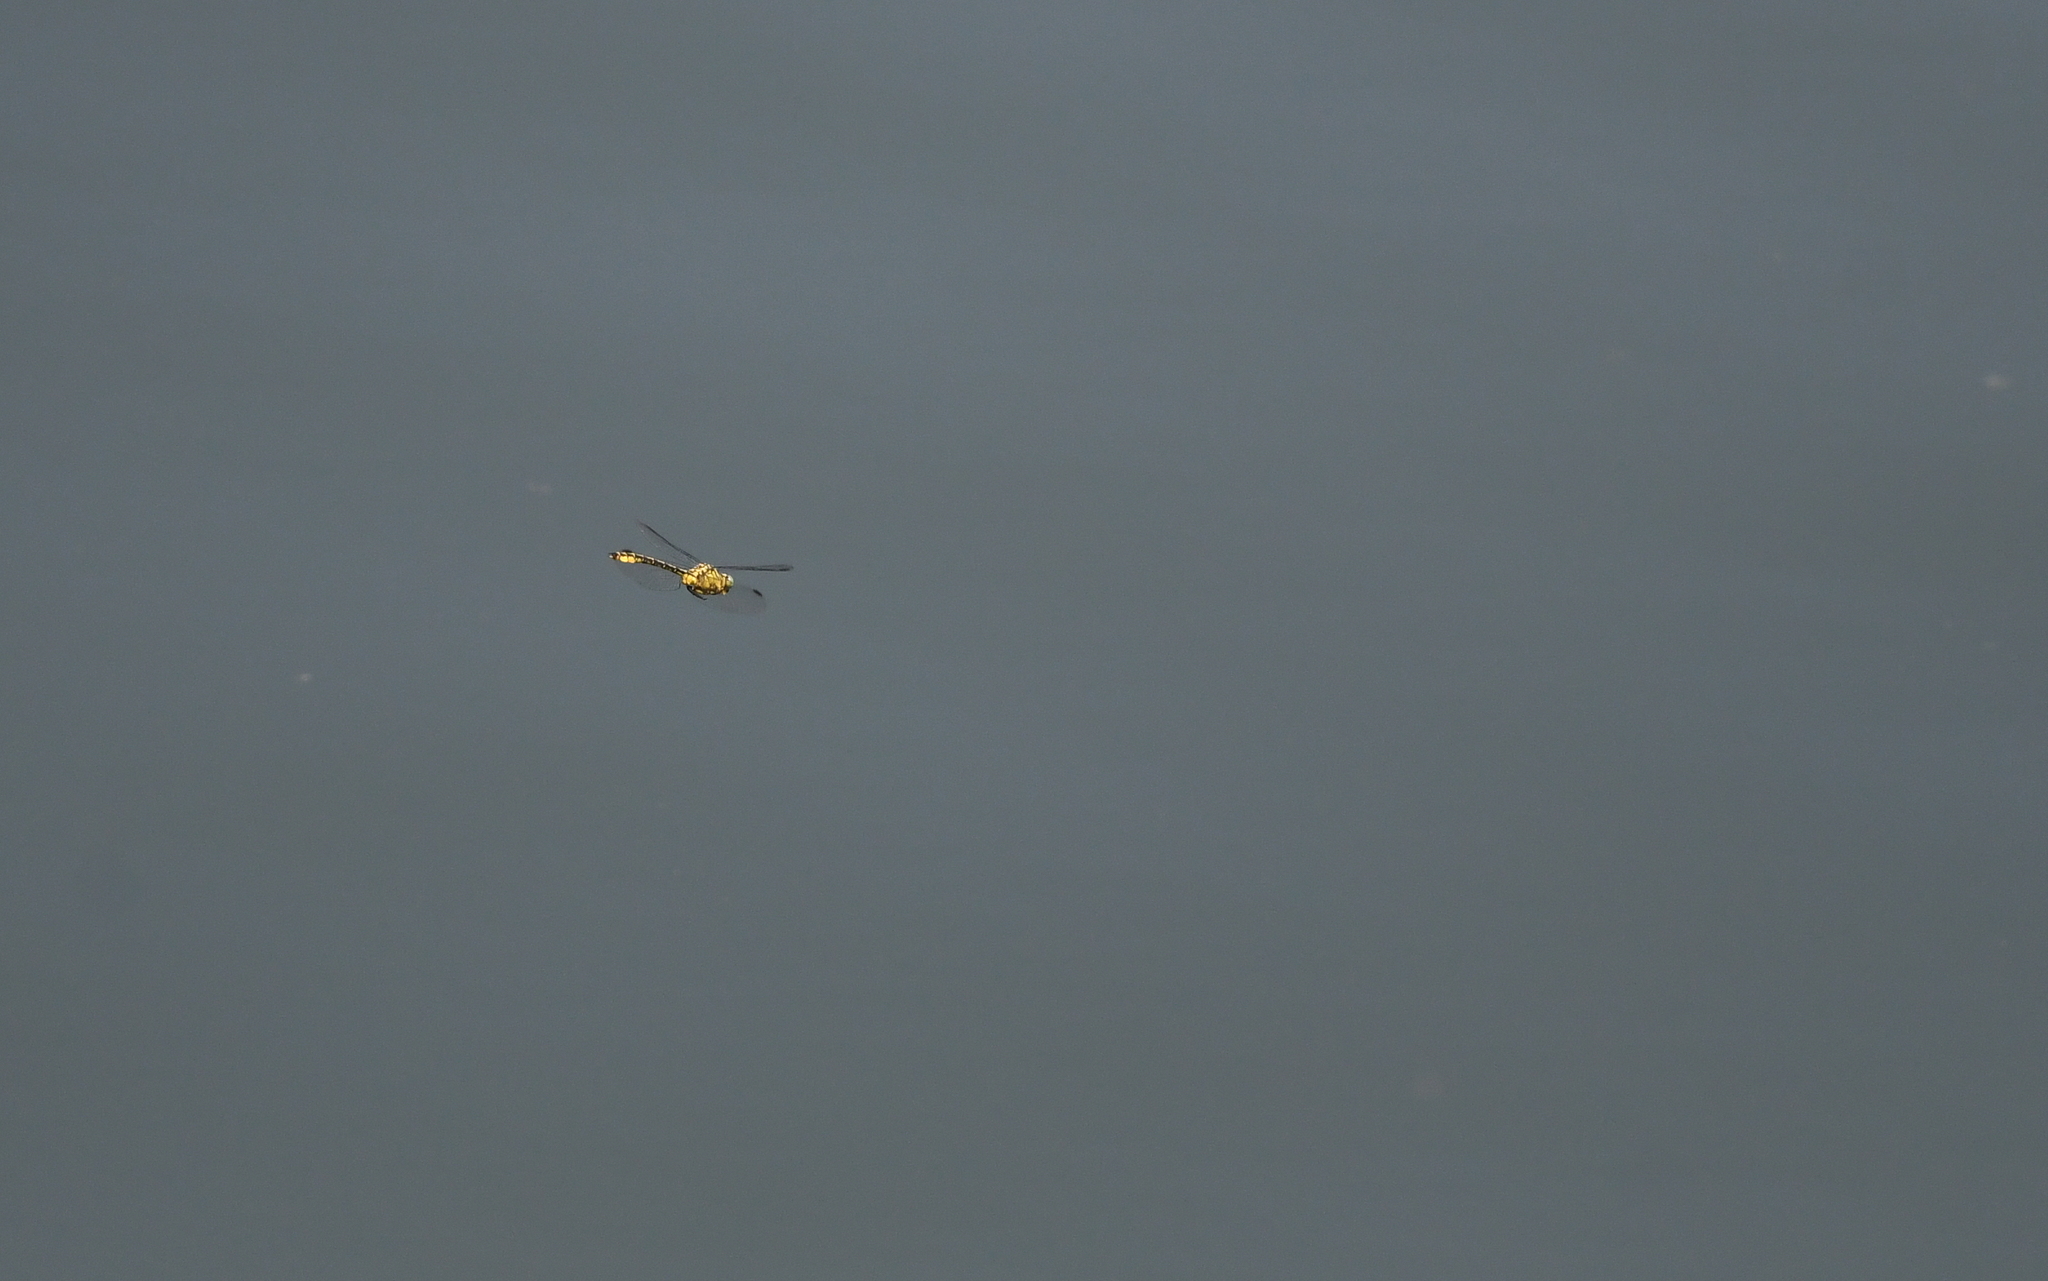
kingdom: Animalia
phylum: Arthropoda
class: Insecta
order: Odonata
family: Gomphidae
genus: Stylurus
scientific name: Stylurus flavipes
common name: River clubtail
